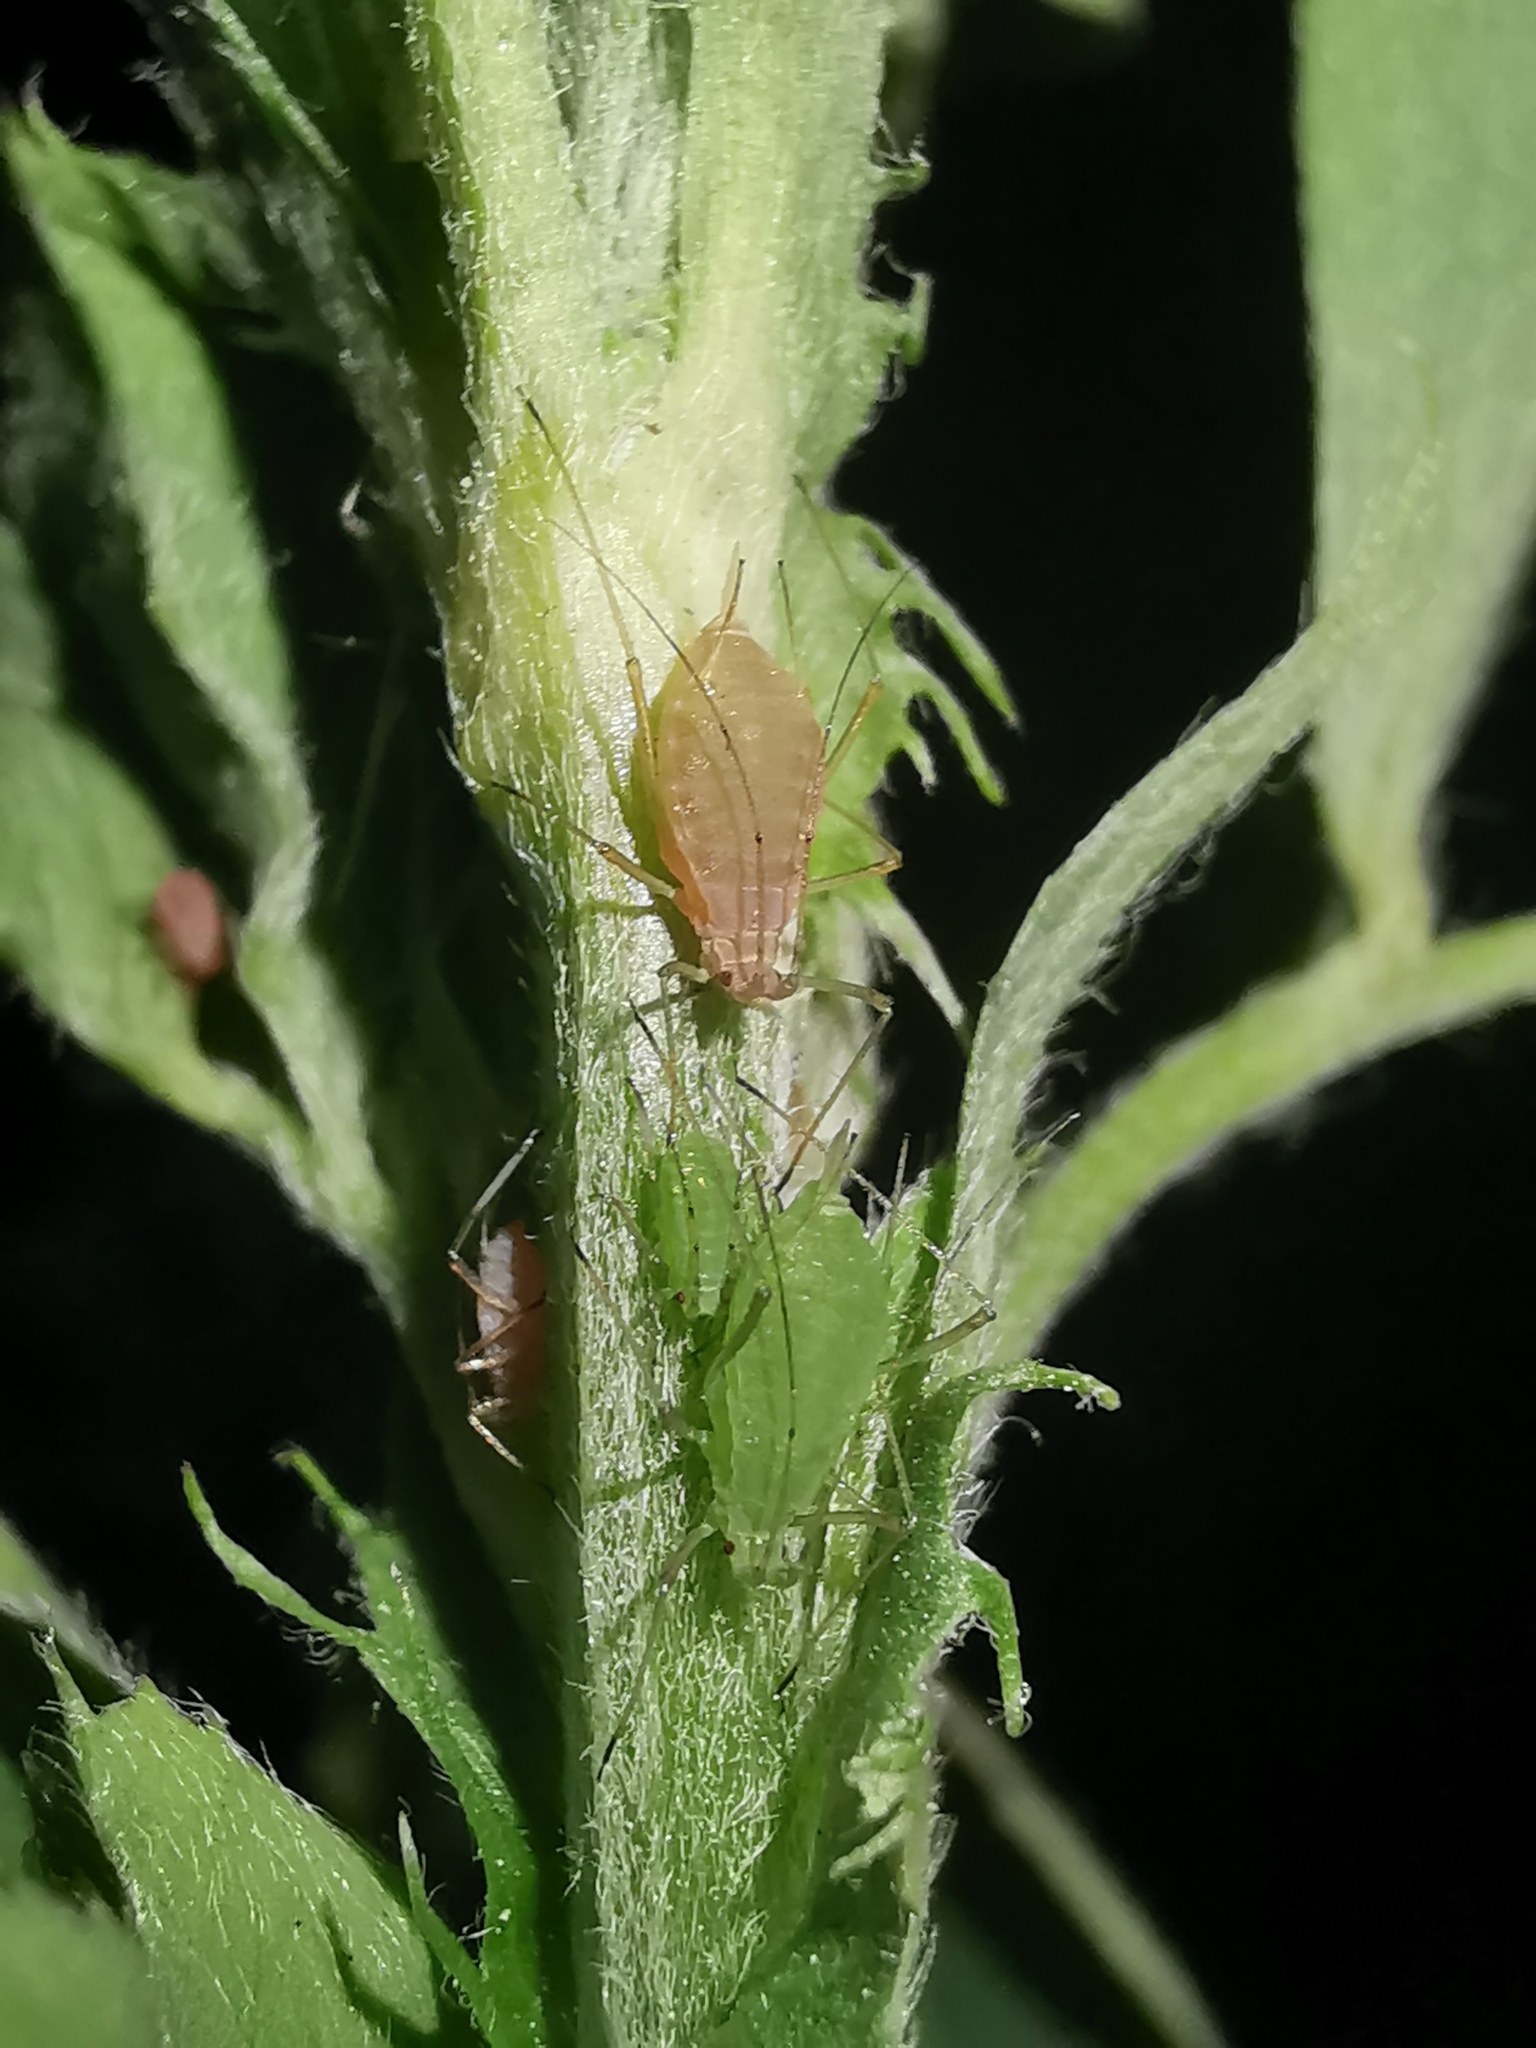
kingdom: Animalia
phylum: Arthropoda
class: Insecta
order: Hemiptera
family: Aphididae
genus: Acyrthosiphon
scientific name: Acyrthosiphon pisum
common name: Pea aphid
